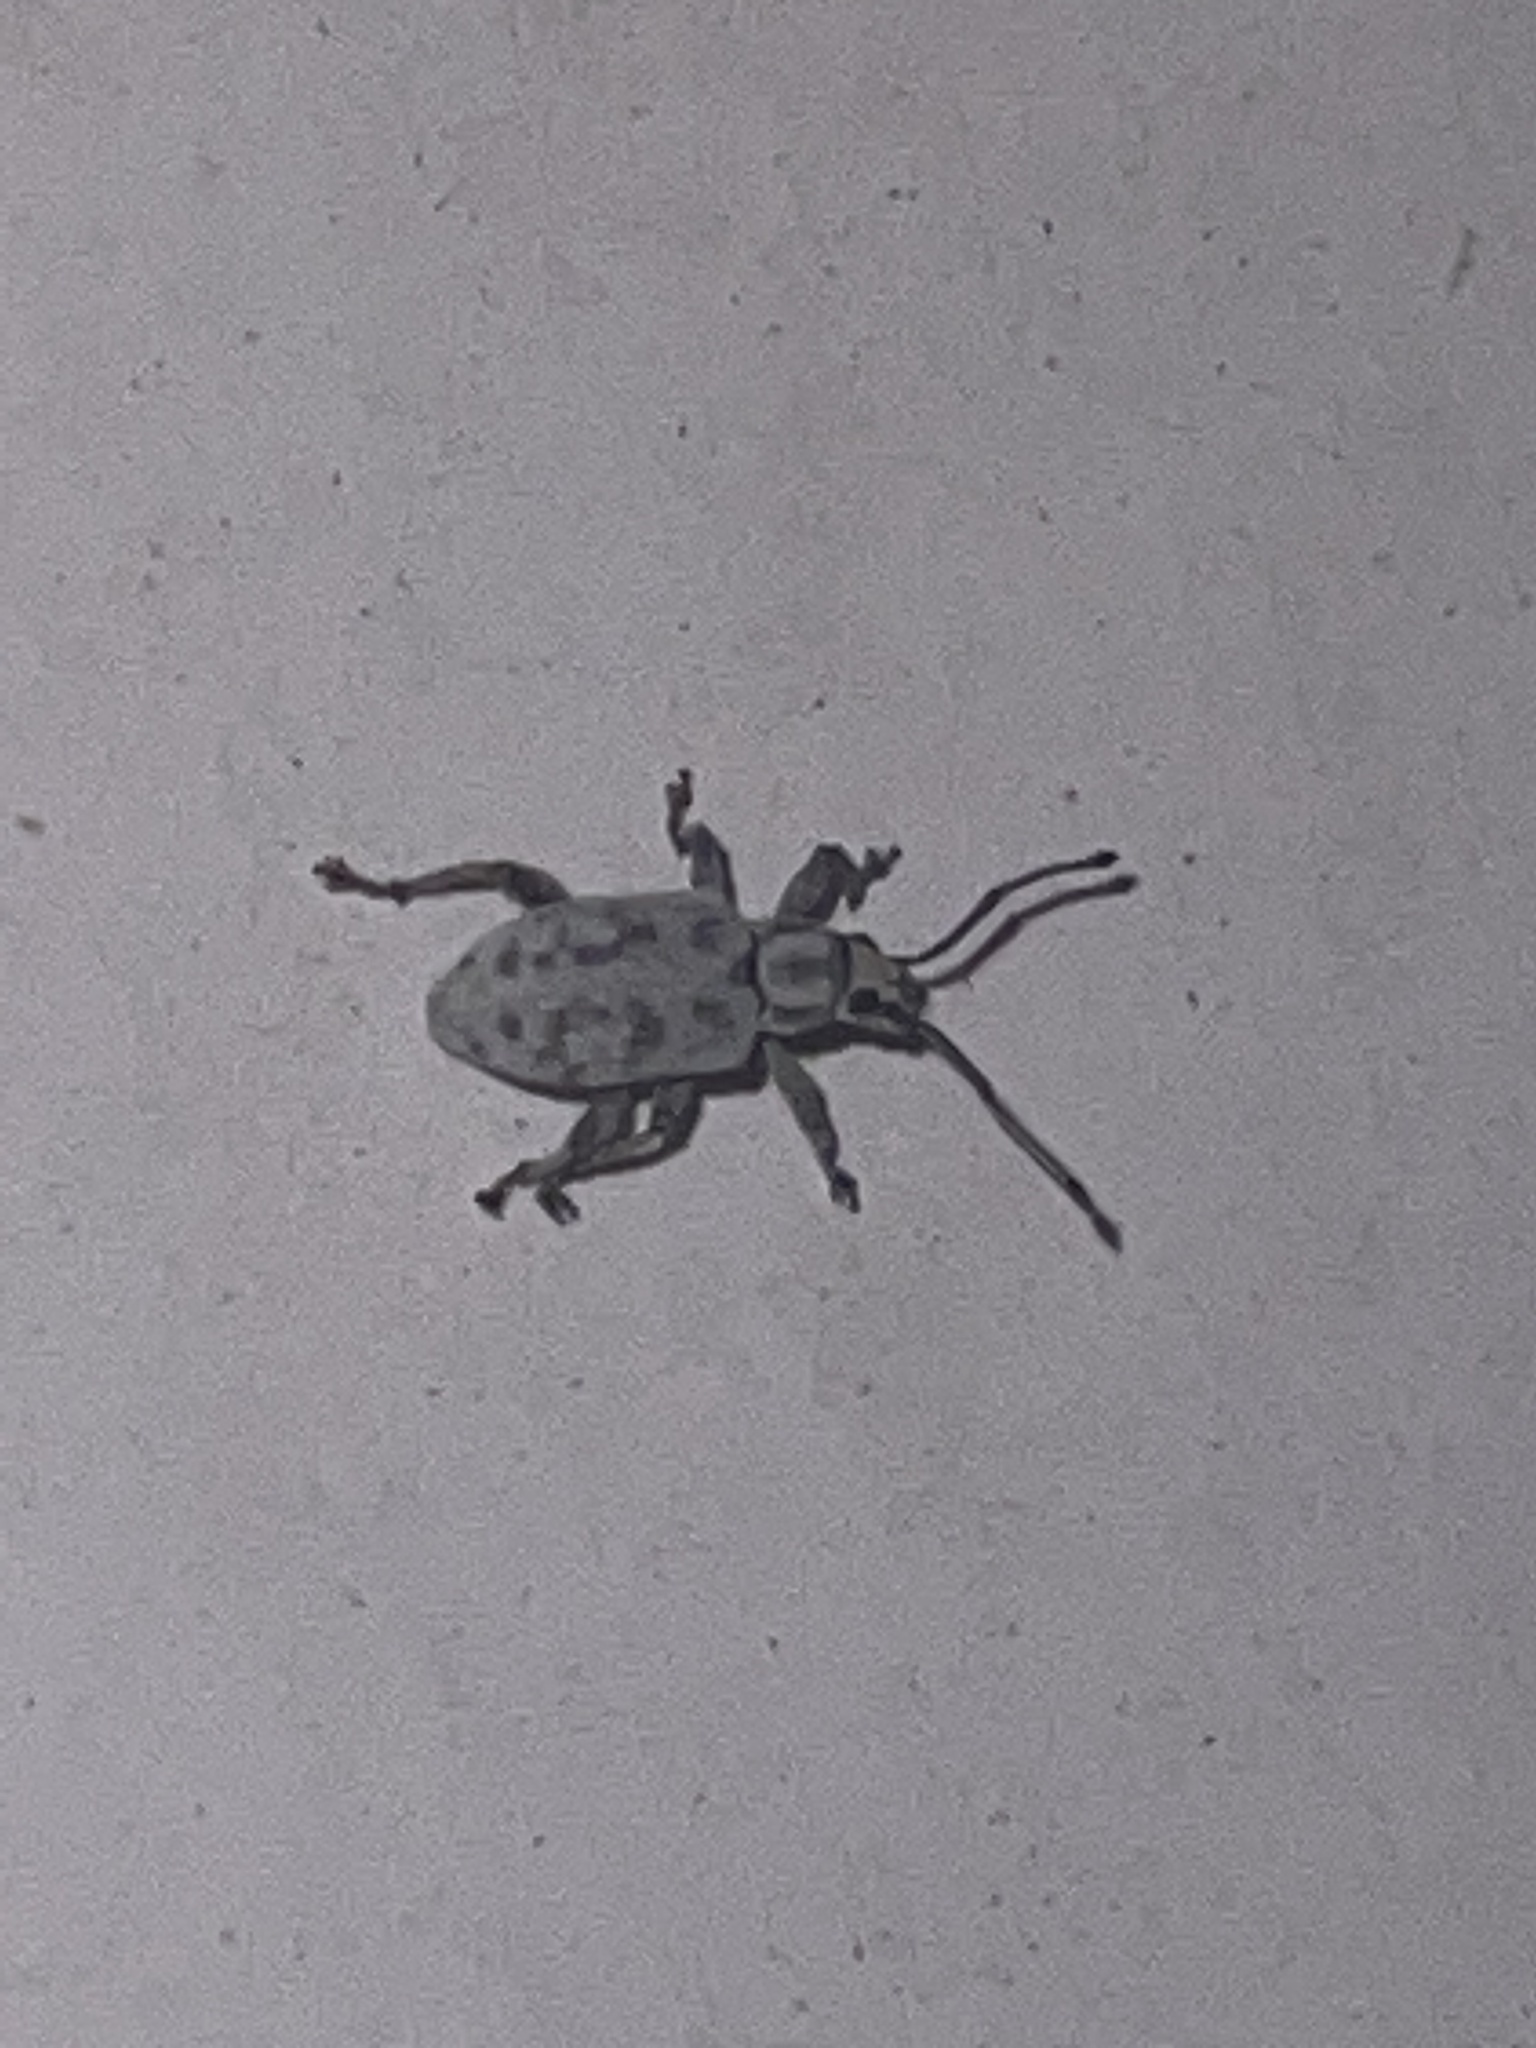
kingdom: Animalia
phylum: Arthropoda
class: Insecta
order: Coleoptera
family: Curculionidae
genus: Myllocerus
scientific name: Myllocerus undecimpustulatus
